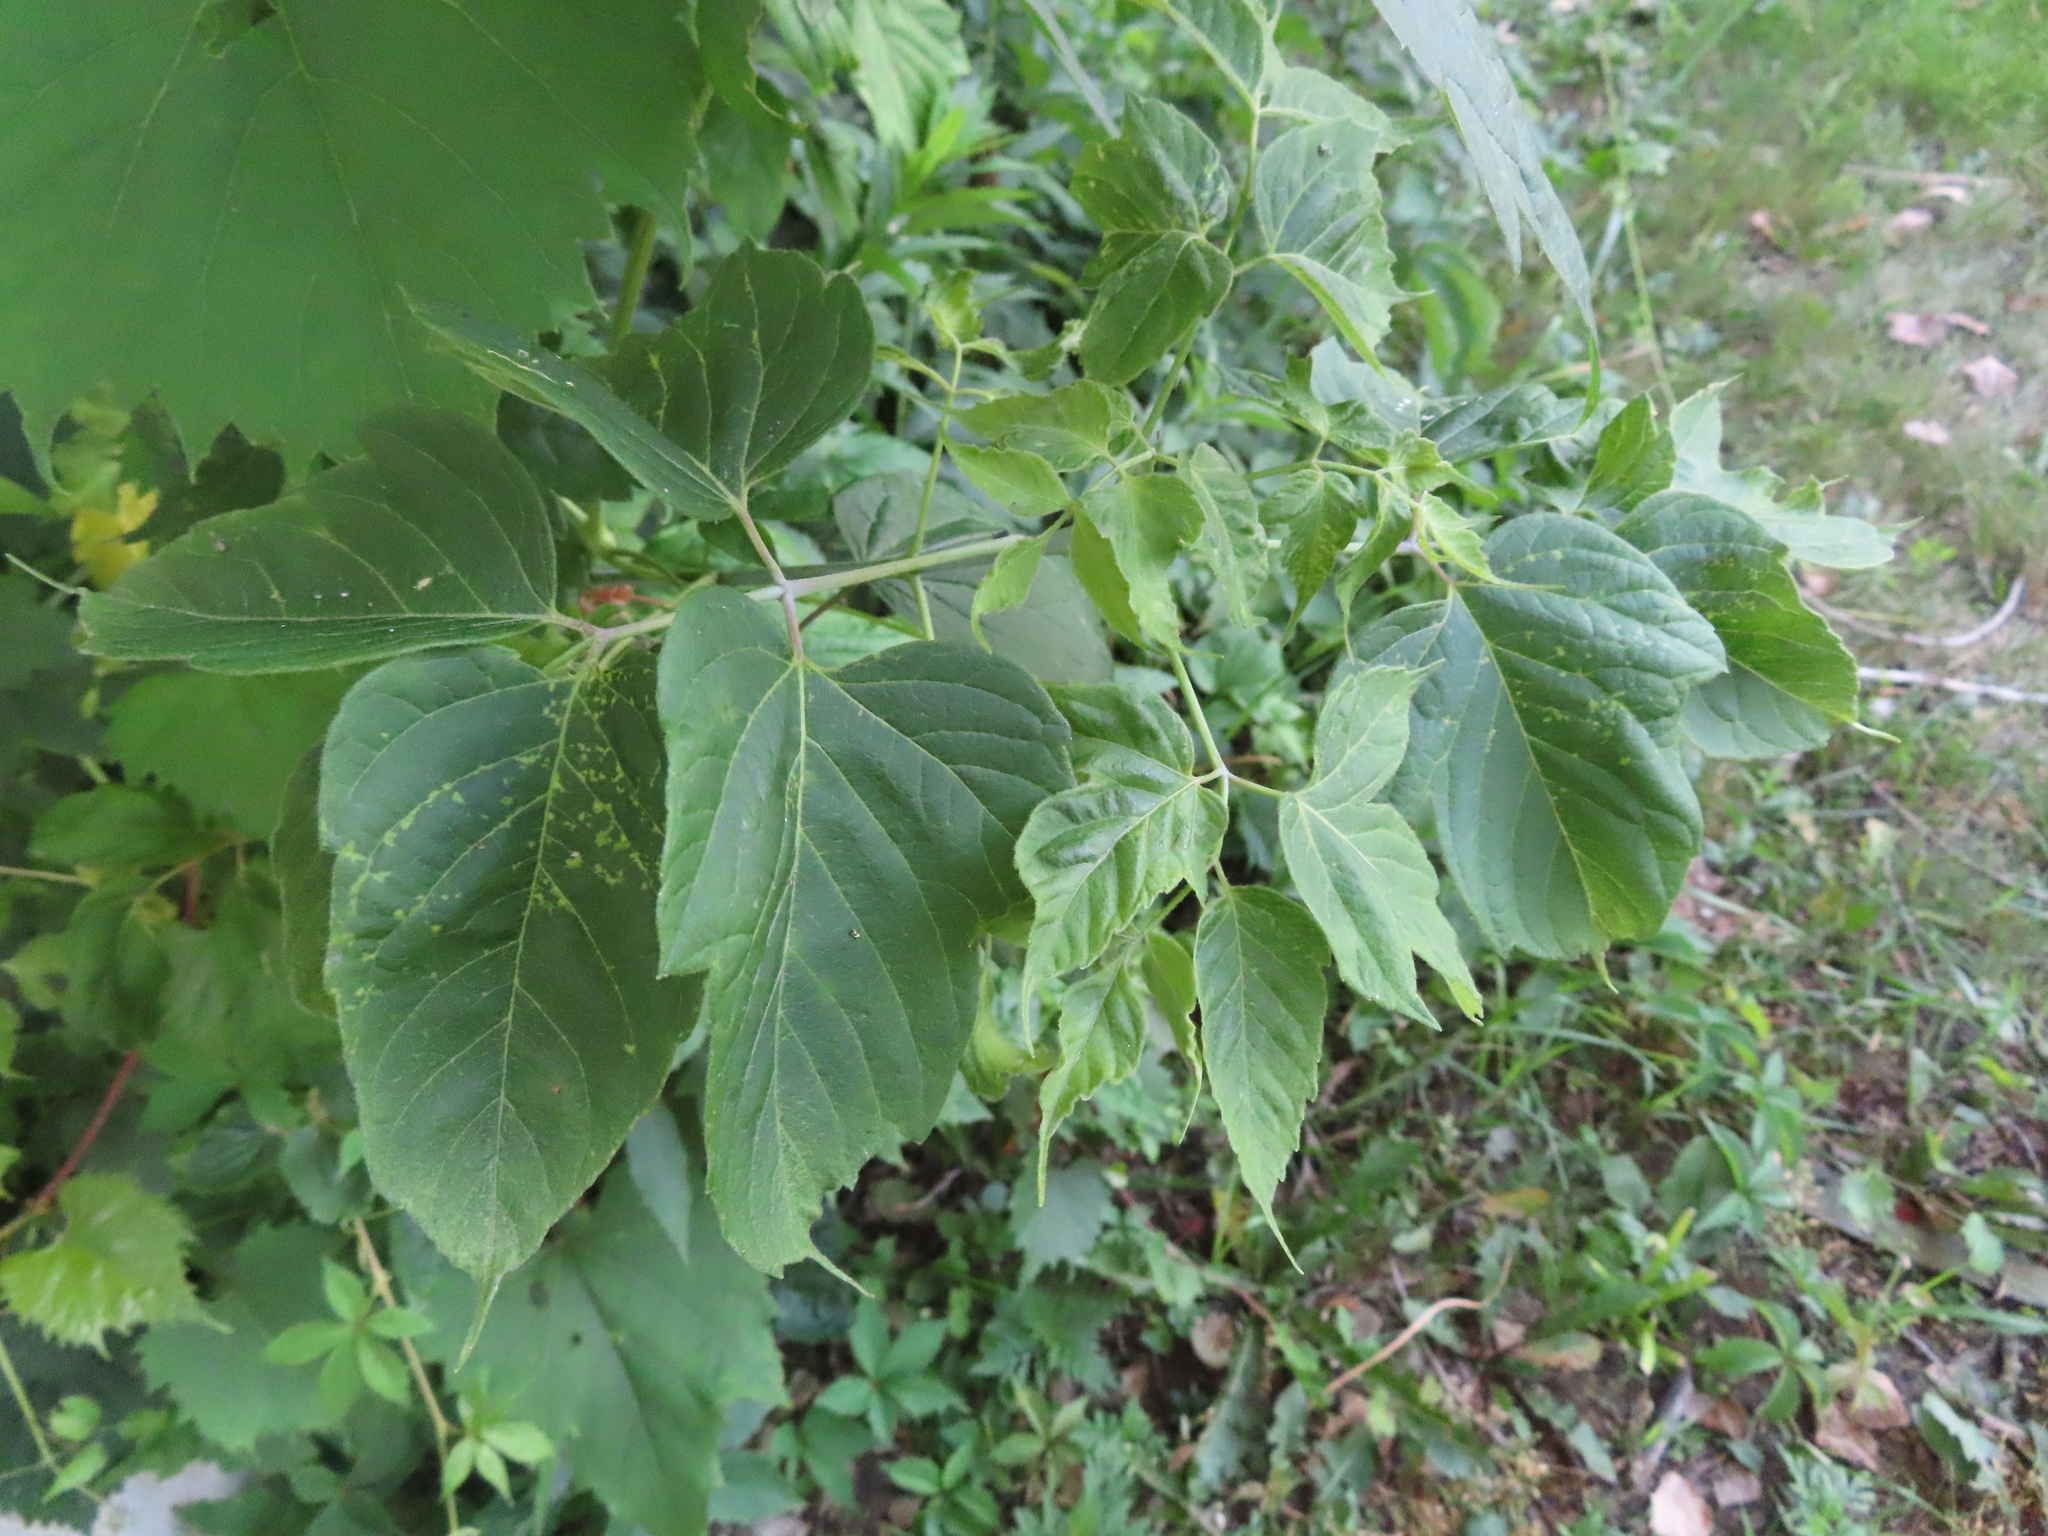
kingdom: Plantae
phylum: Tracheophyta
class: Magnoliopsida
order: Sapindales
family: Sapindaceae
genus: Acer
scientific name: Acer negundo
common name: Ashleaf maple
